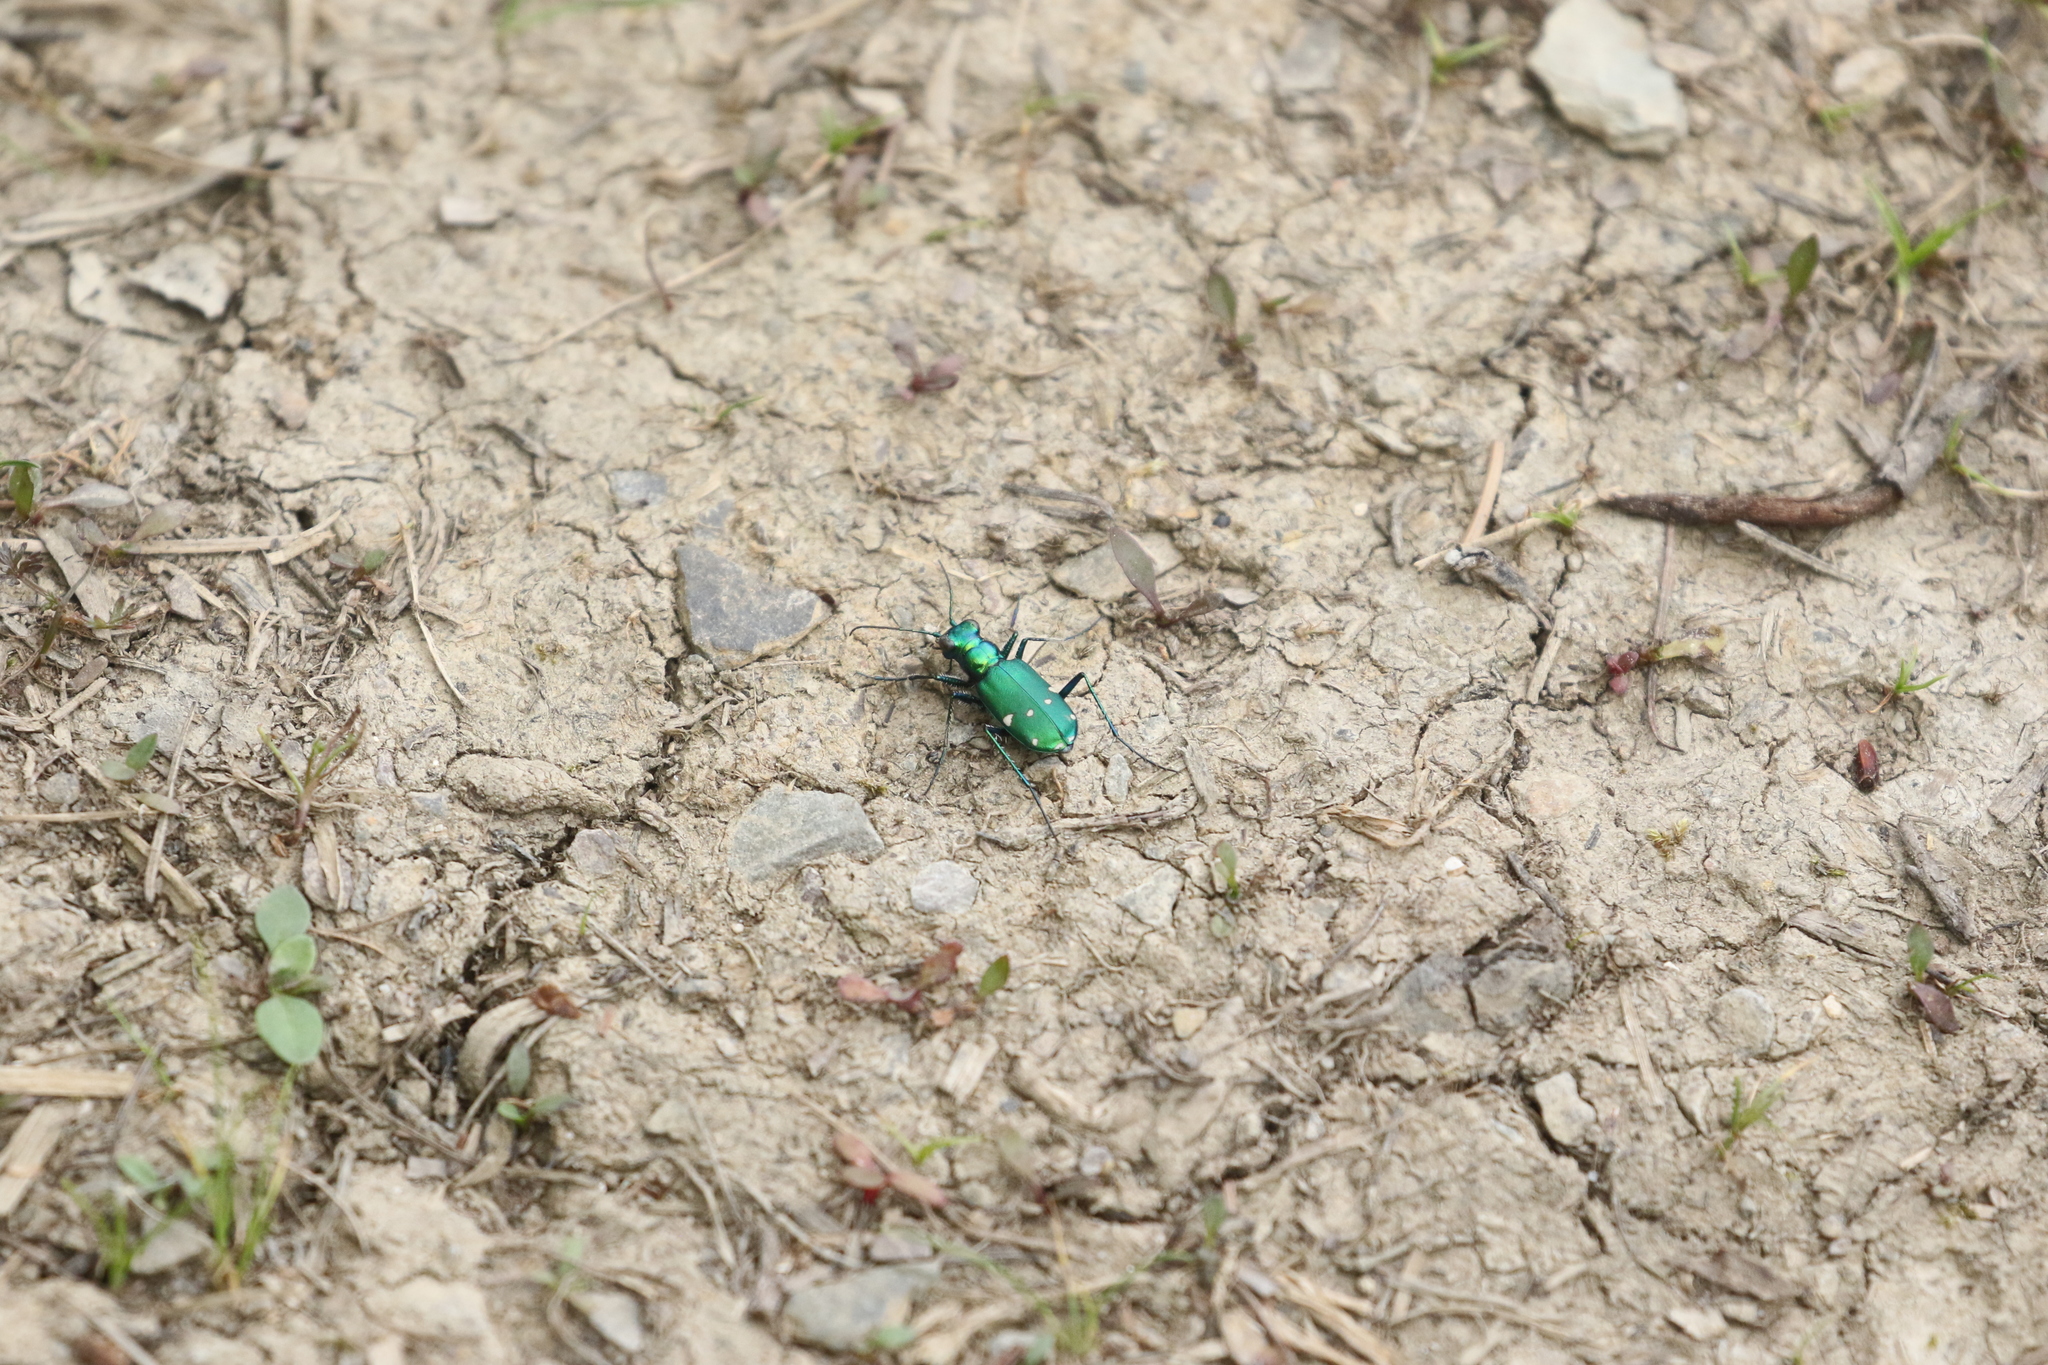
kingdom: Animalia
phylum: Arthropoda
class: Insecta
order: Coleoptera
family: Carabidae
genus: Cicindela
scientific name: Cicindela sexguttata
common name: Six-spotted tiger beetle
